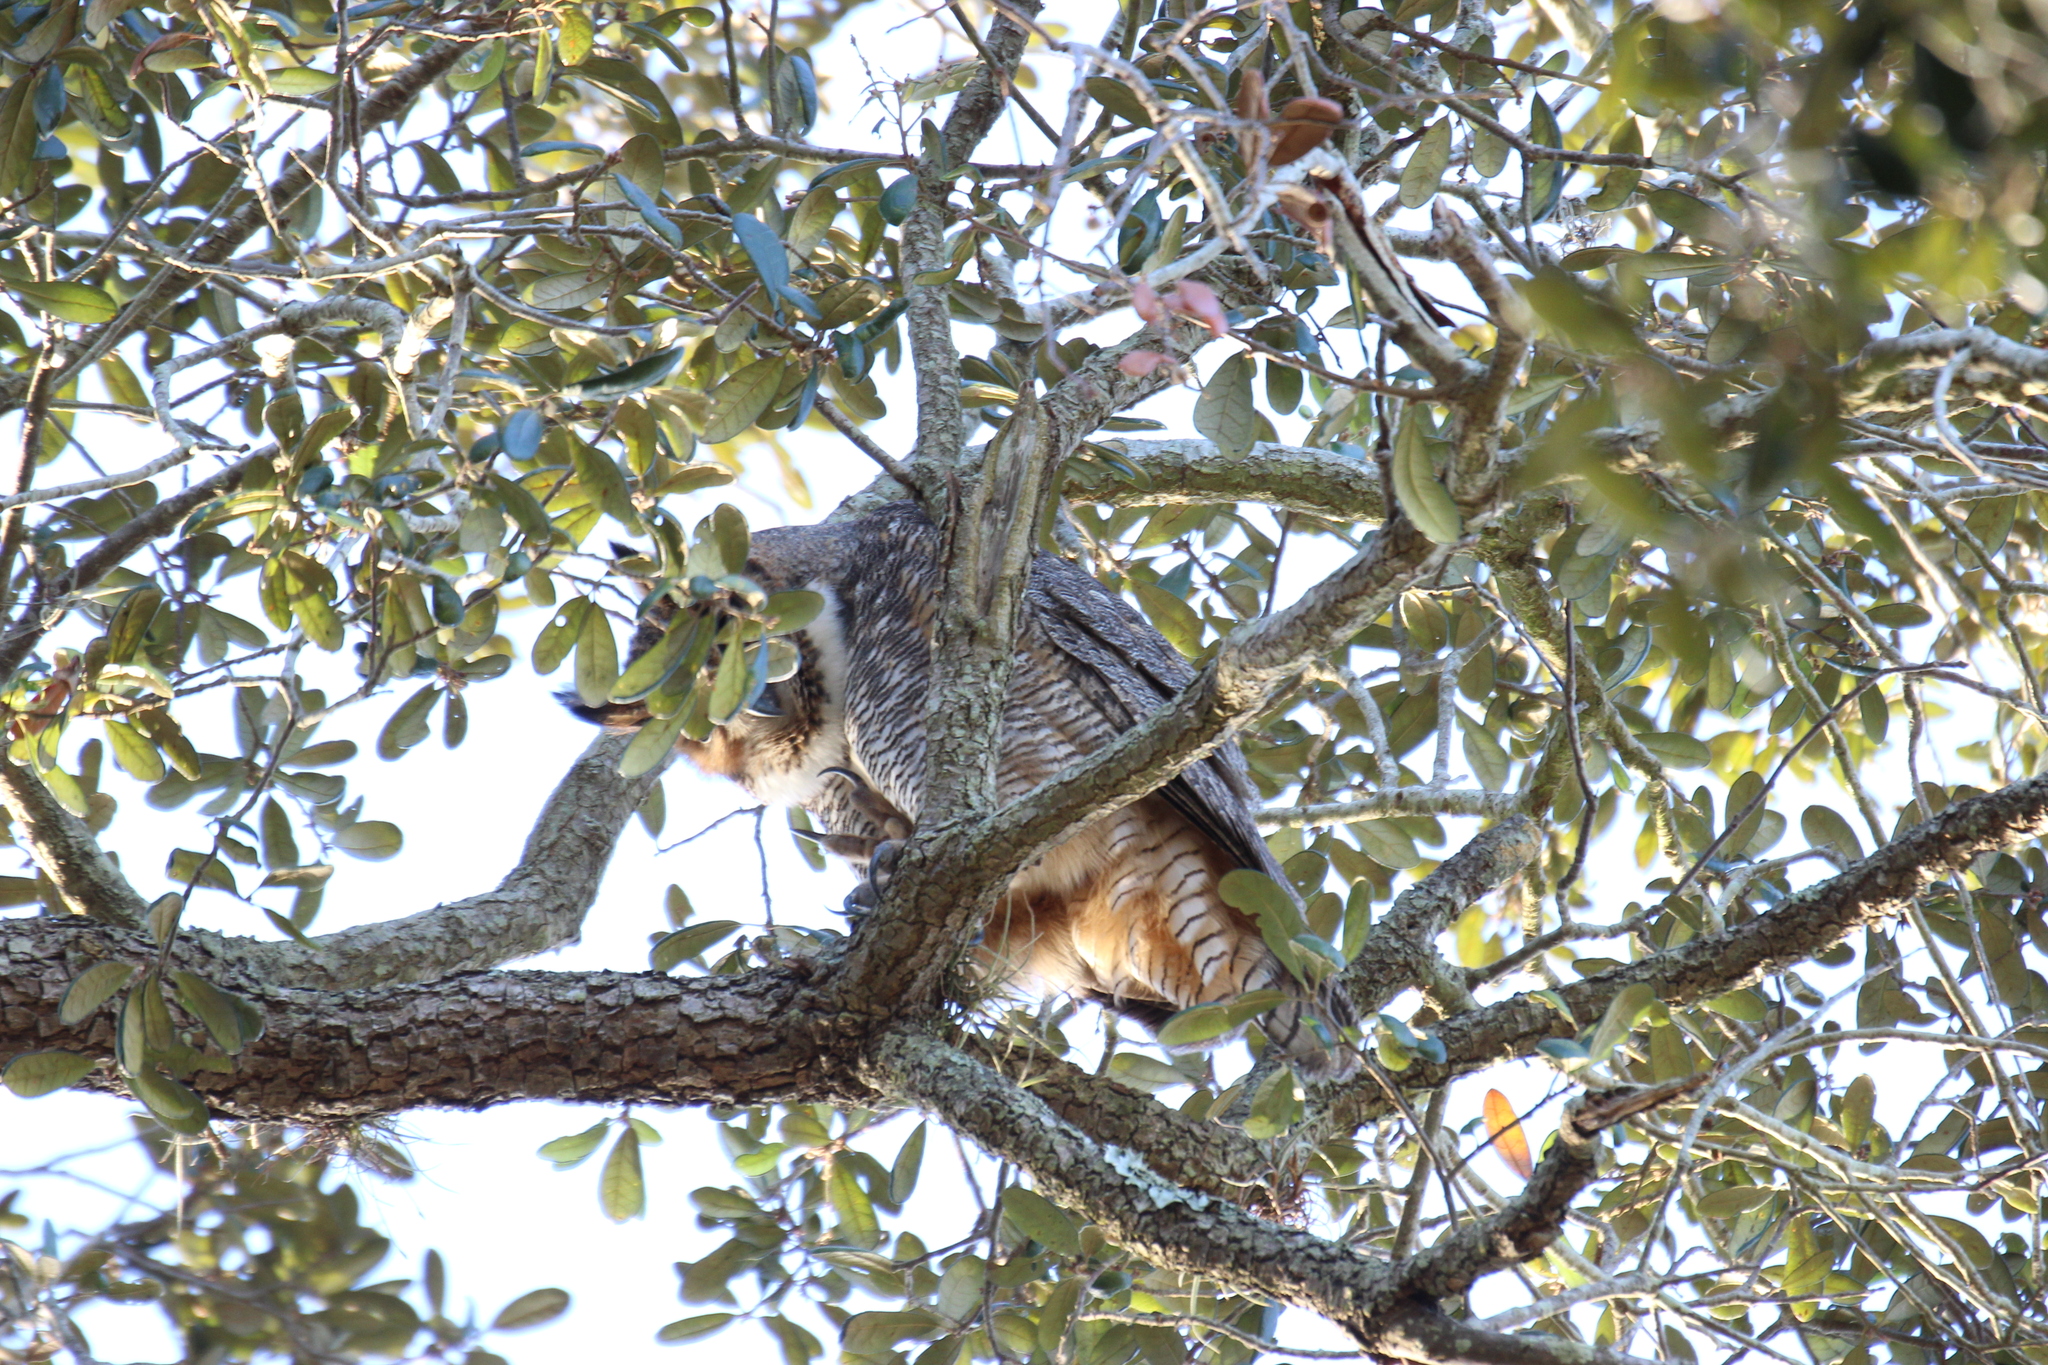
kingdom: Animalia
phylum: Chordata
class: Aves
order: Strigiformes
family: Strigidae
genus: Bubo
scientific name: Bubo virginianus
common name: Great horned owl
